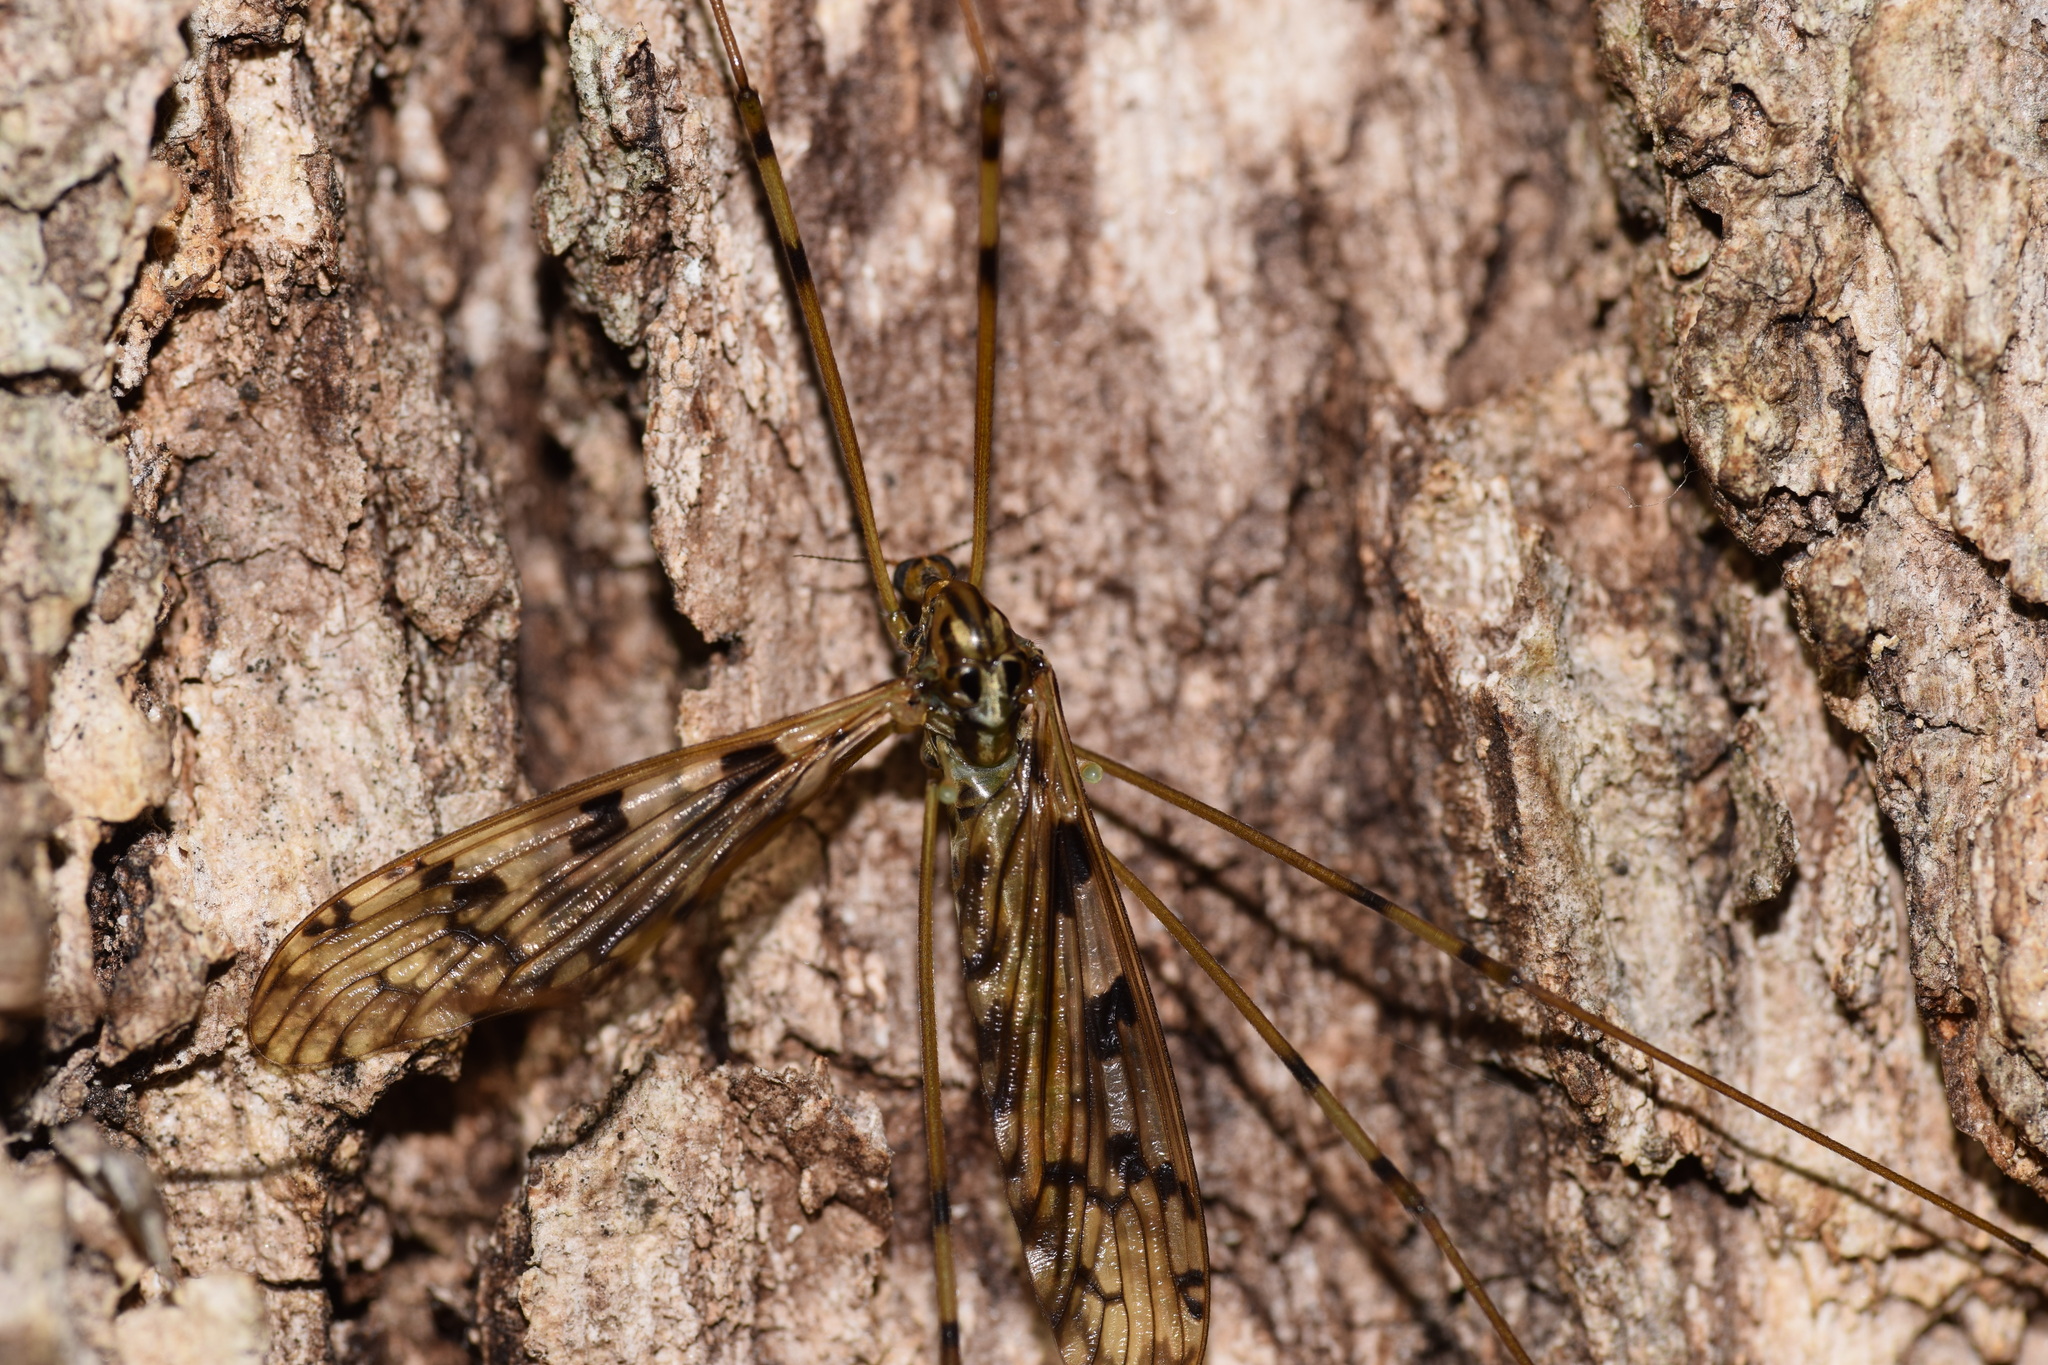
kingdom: Animalia
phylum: Arthropoda
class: Insecta
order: Diptera
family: Limoniidae
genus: Metalimnobia
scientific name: Metalimnobia cinctipes
